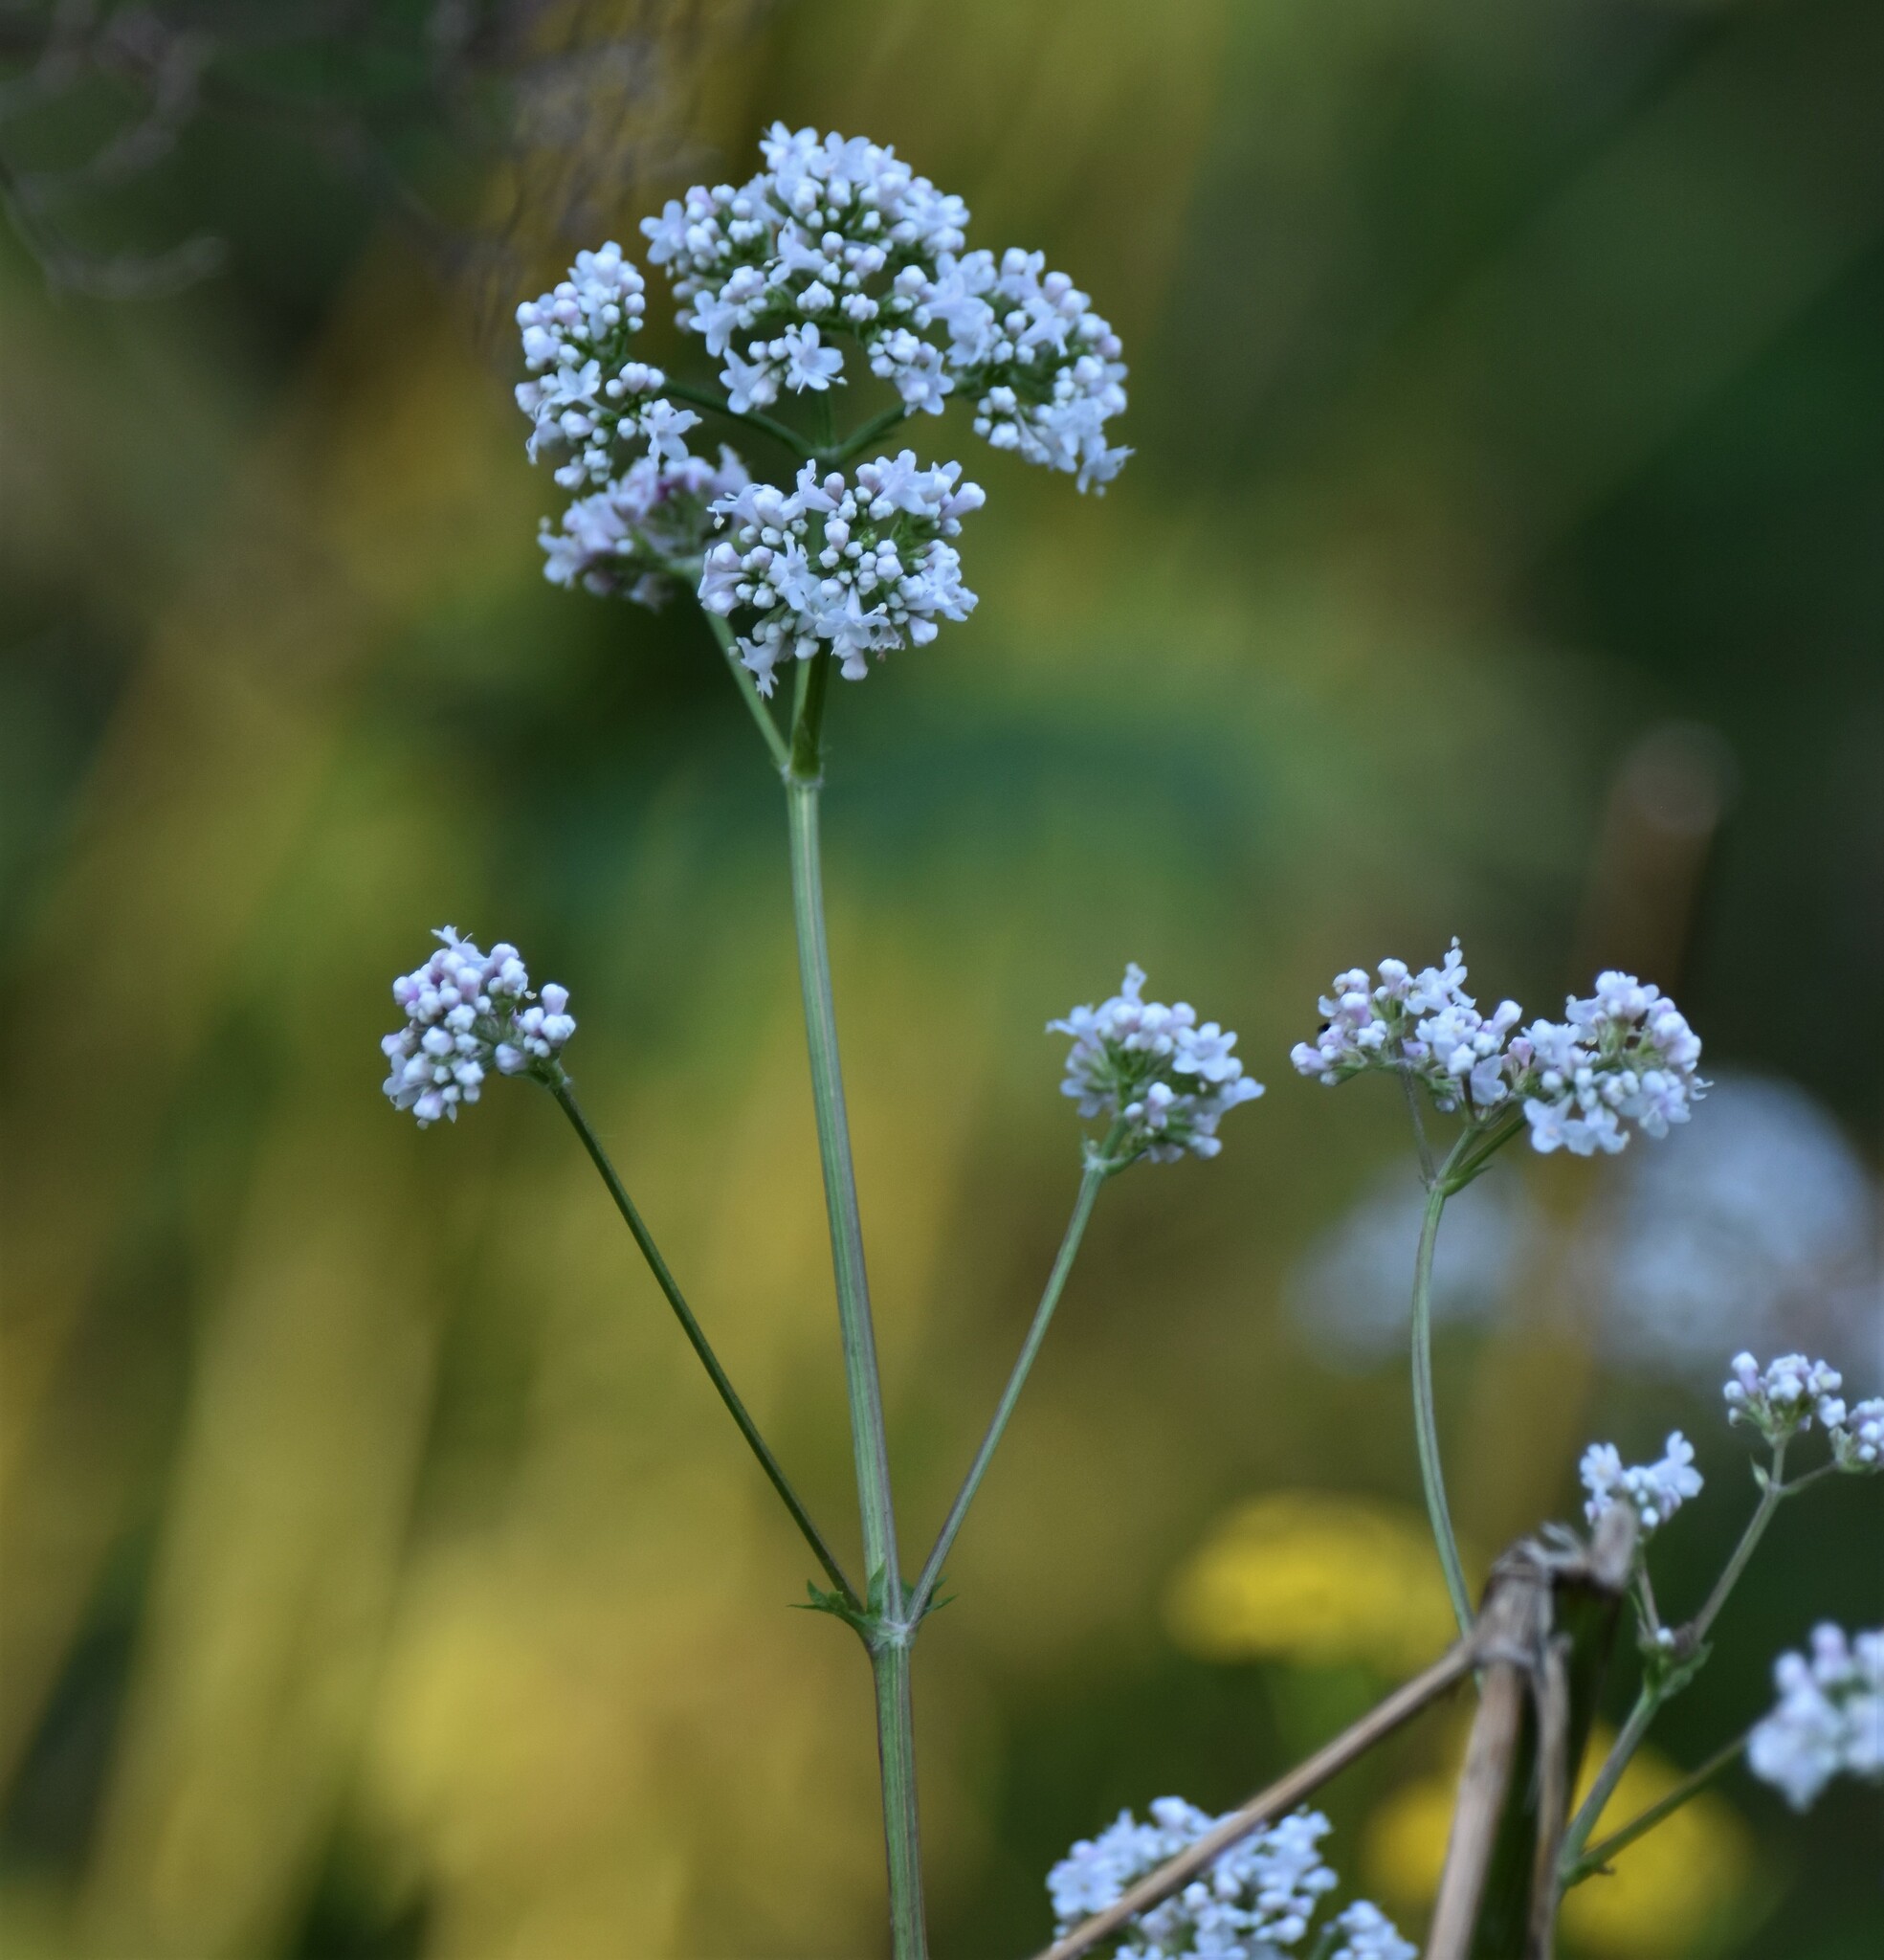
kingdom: Plantae
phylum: Tracheophyta
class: Magnoliopsida
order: Dipsacales
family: Caprifoliaceae
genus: Valeriana
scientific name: Valeriana officinalis
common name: Common valerian
